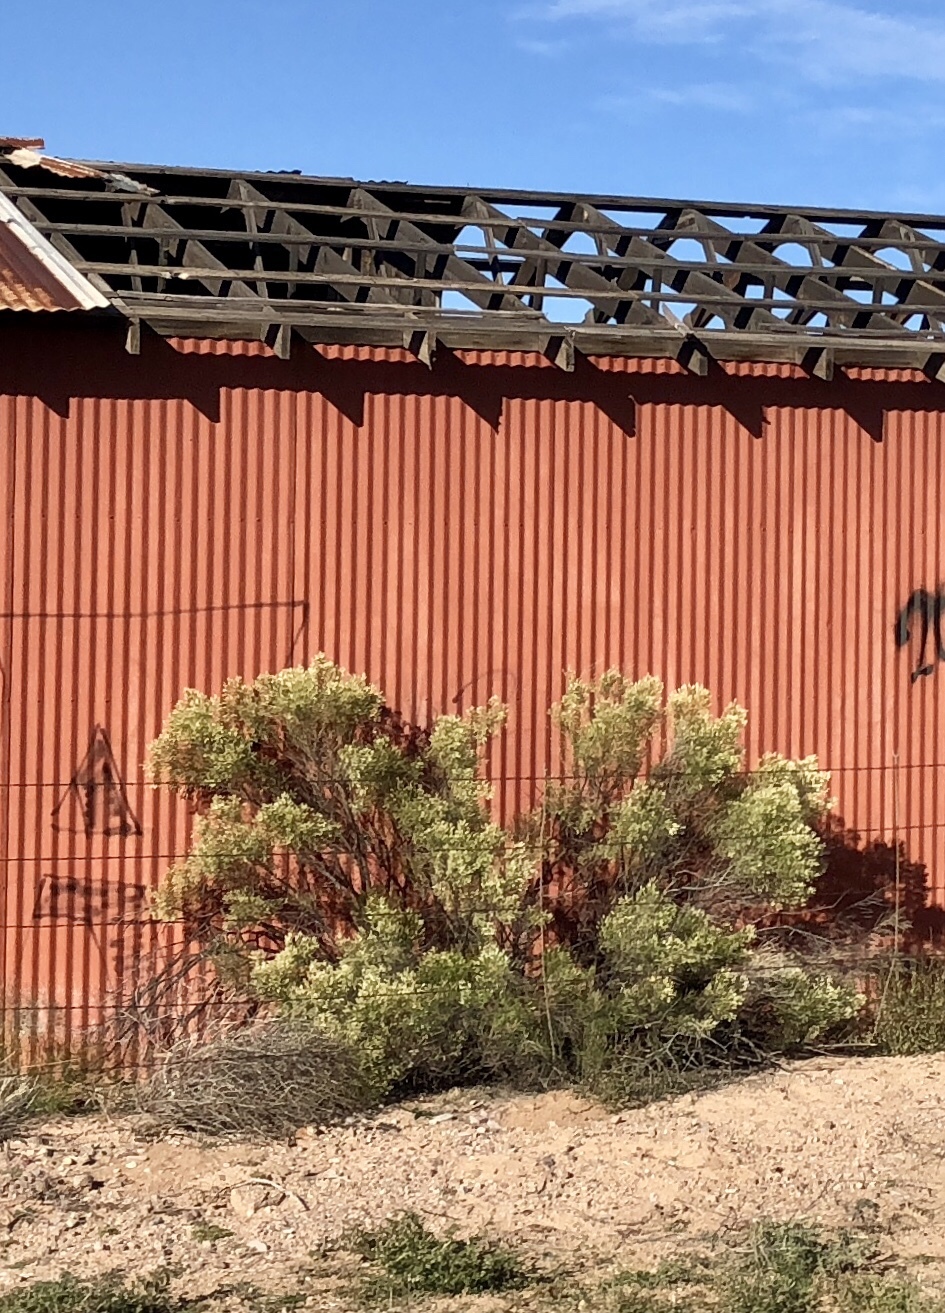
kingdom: Plantae
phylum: Tracheophyta
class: Magnoliopsida
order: Asterales
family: Asteraceae
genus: Baccharis
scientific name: Baccharis sarothroides
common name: Desert-broom
